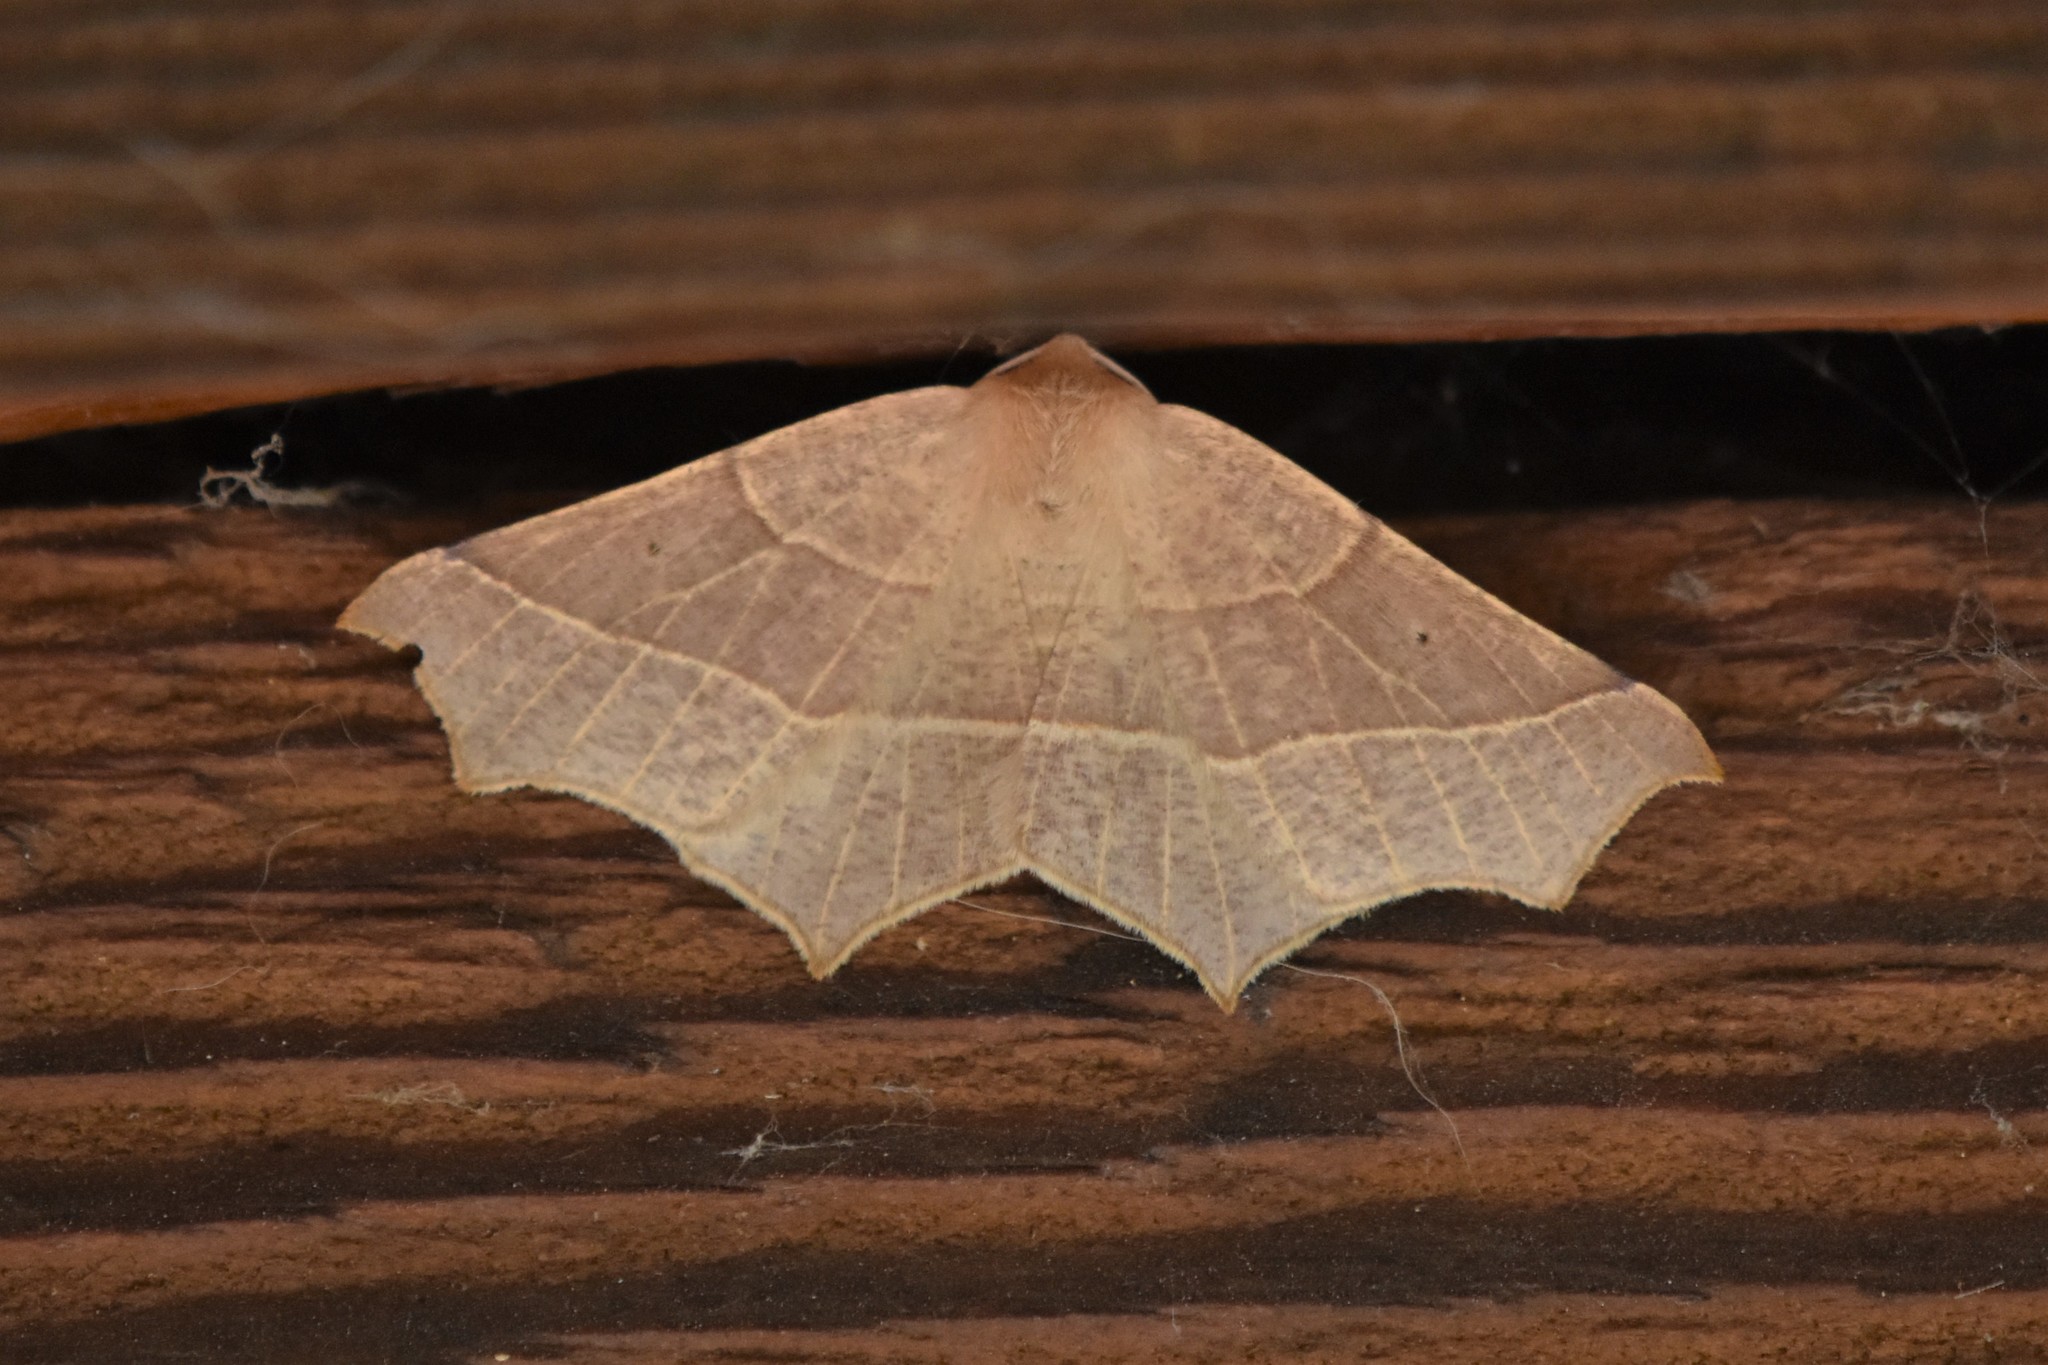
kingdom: Animalia
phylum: Arthropoda
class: Insecta
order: Lepidoptera
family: Geometridae
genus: Tetracis
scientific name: Tetracis cervinaria
